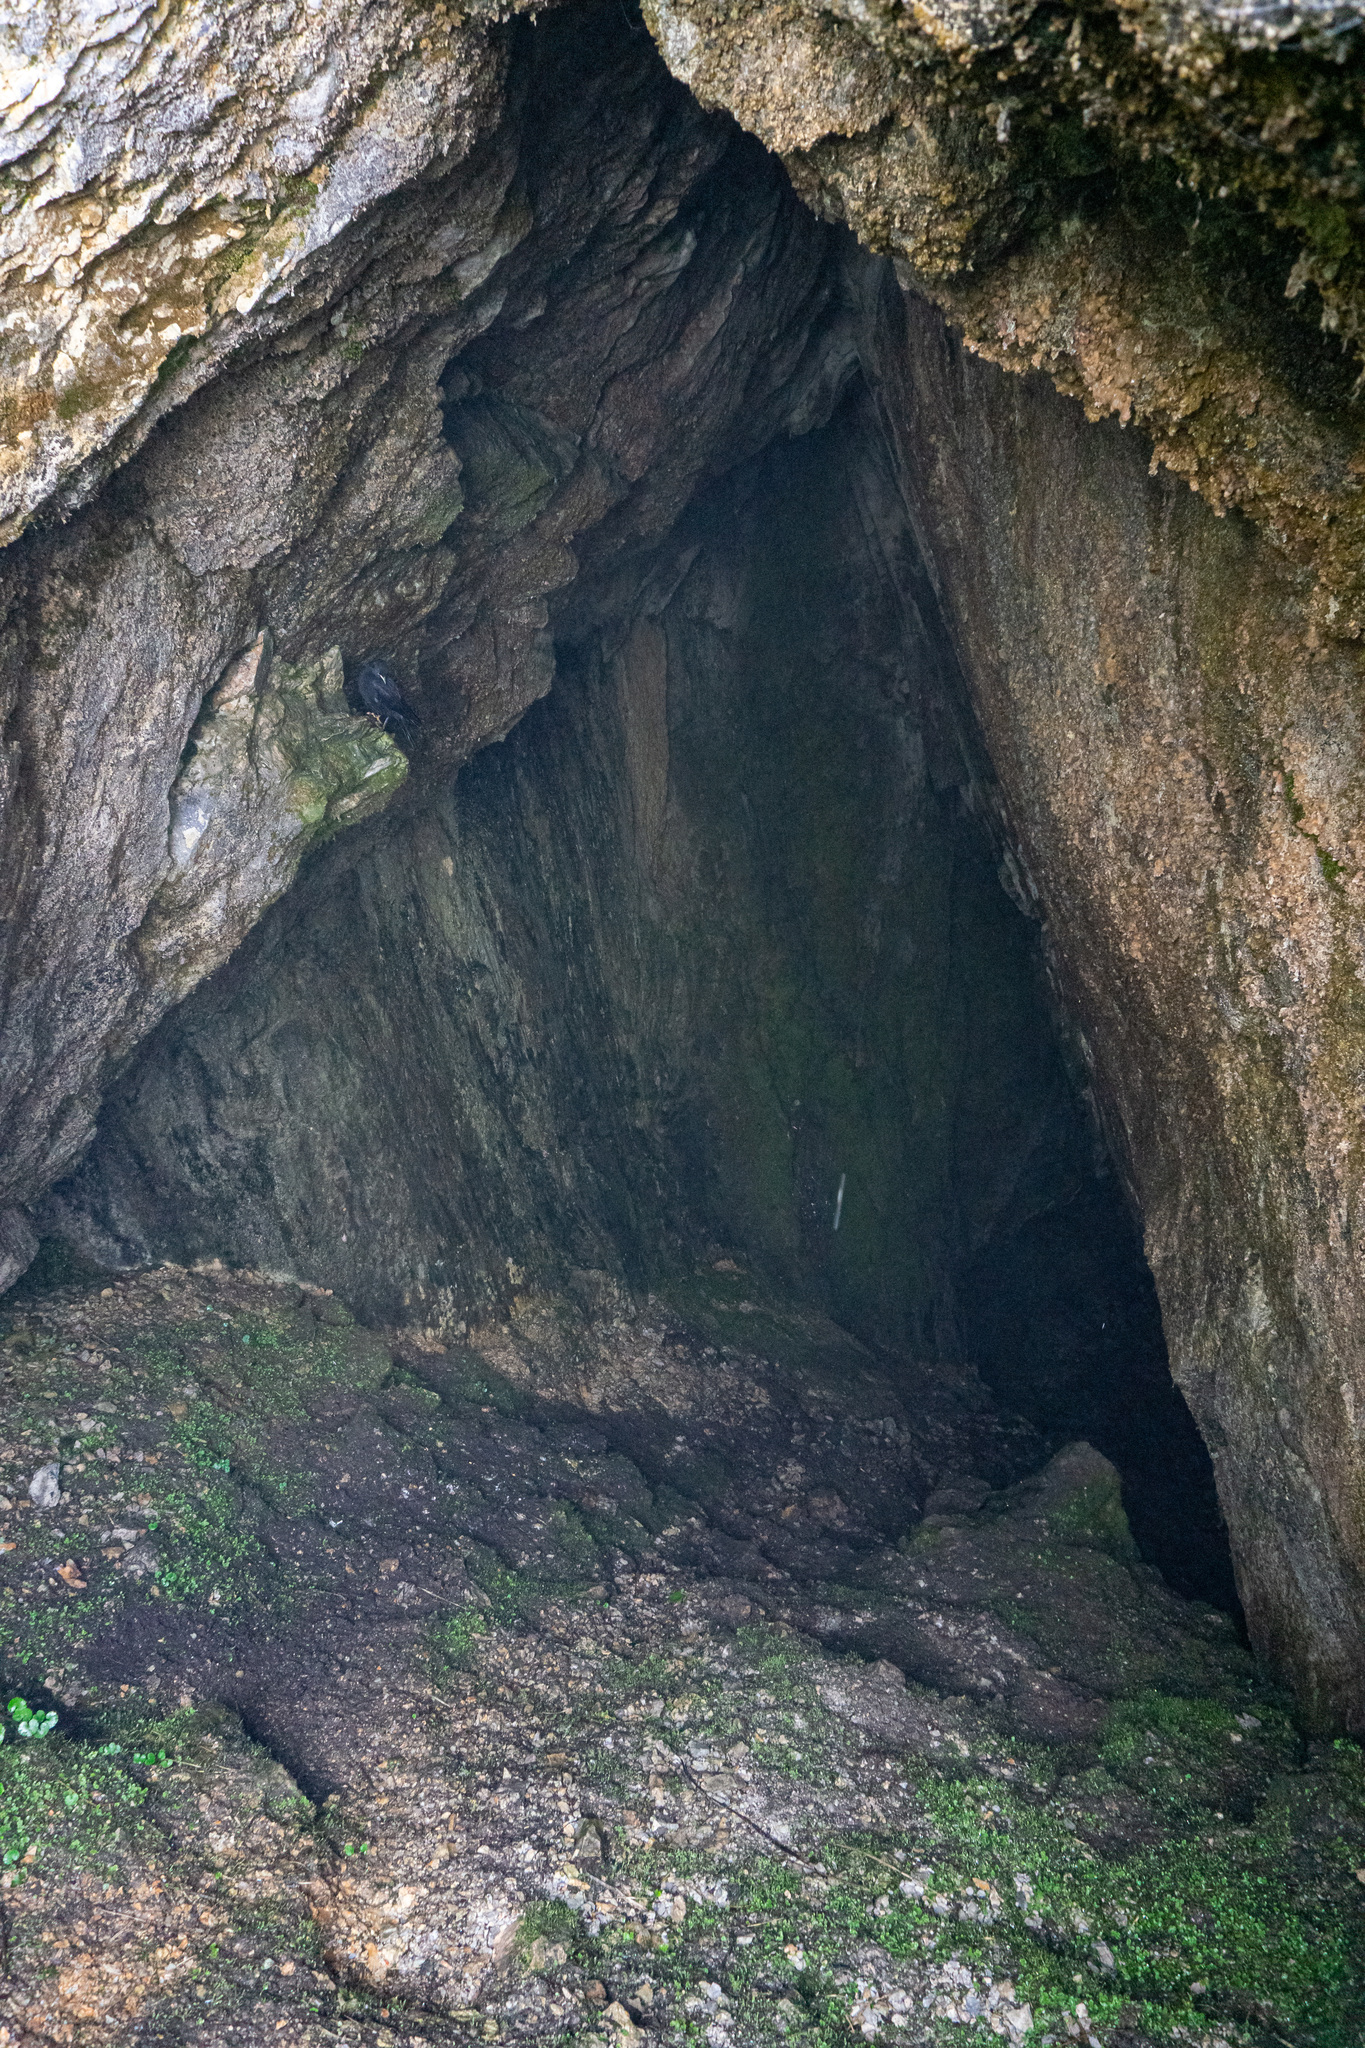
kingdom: Animalia
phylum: Chordata
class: Aves
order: Passeriformes
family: Corvidae
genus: Pyrrhocorax
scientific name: Pyrrhocorax graculus
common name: Alpine chough
